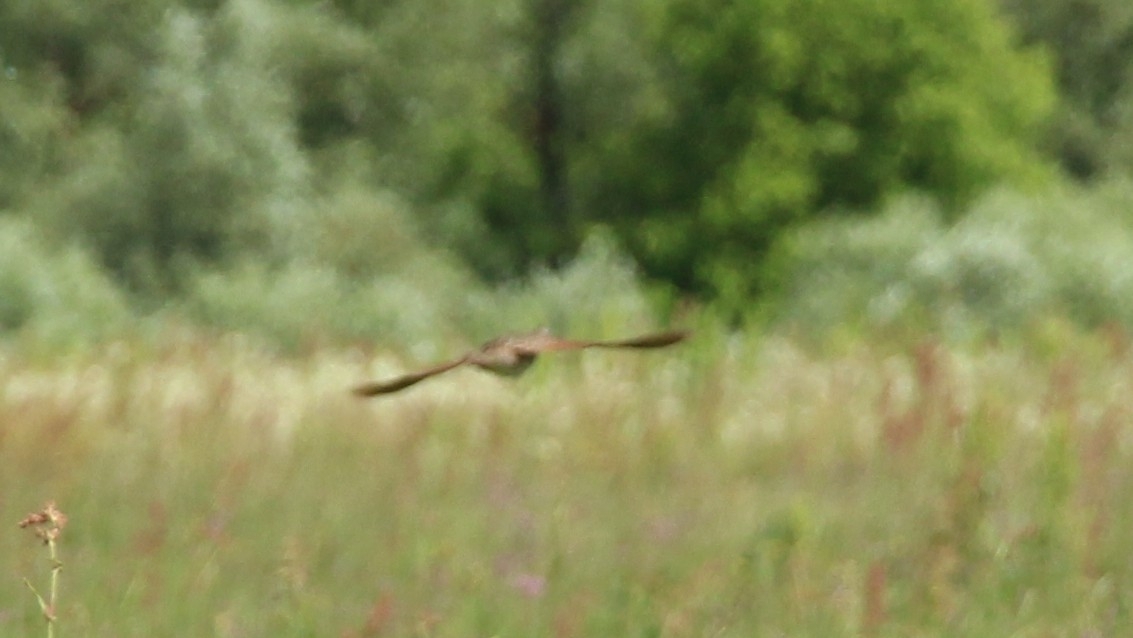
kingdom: Animalia
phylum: Chordata
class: Aves
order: Gruiformes
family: Rallidae
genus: Crex
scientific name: Crex crex
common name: Corn crake
